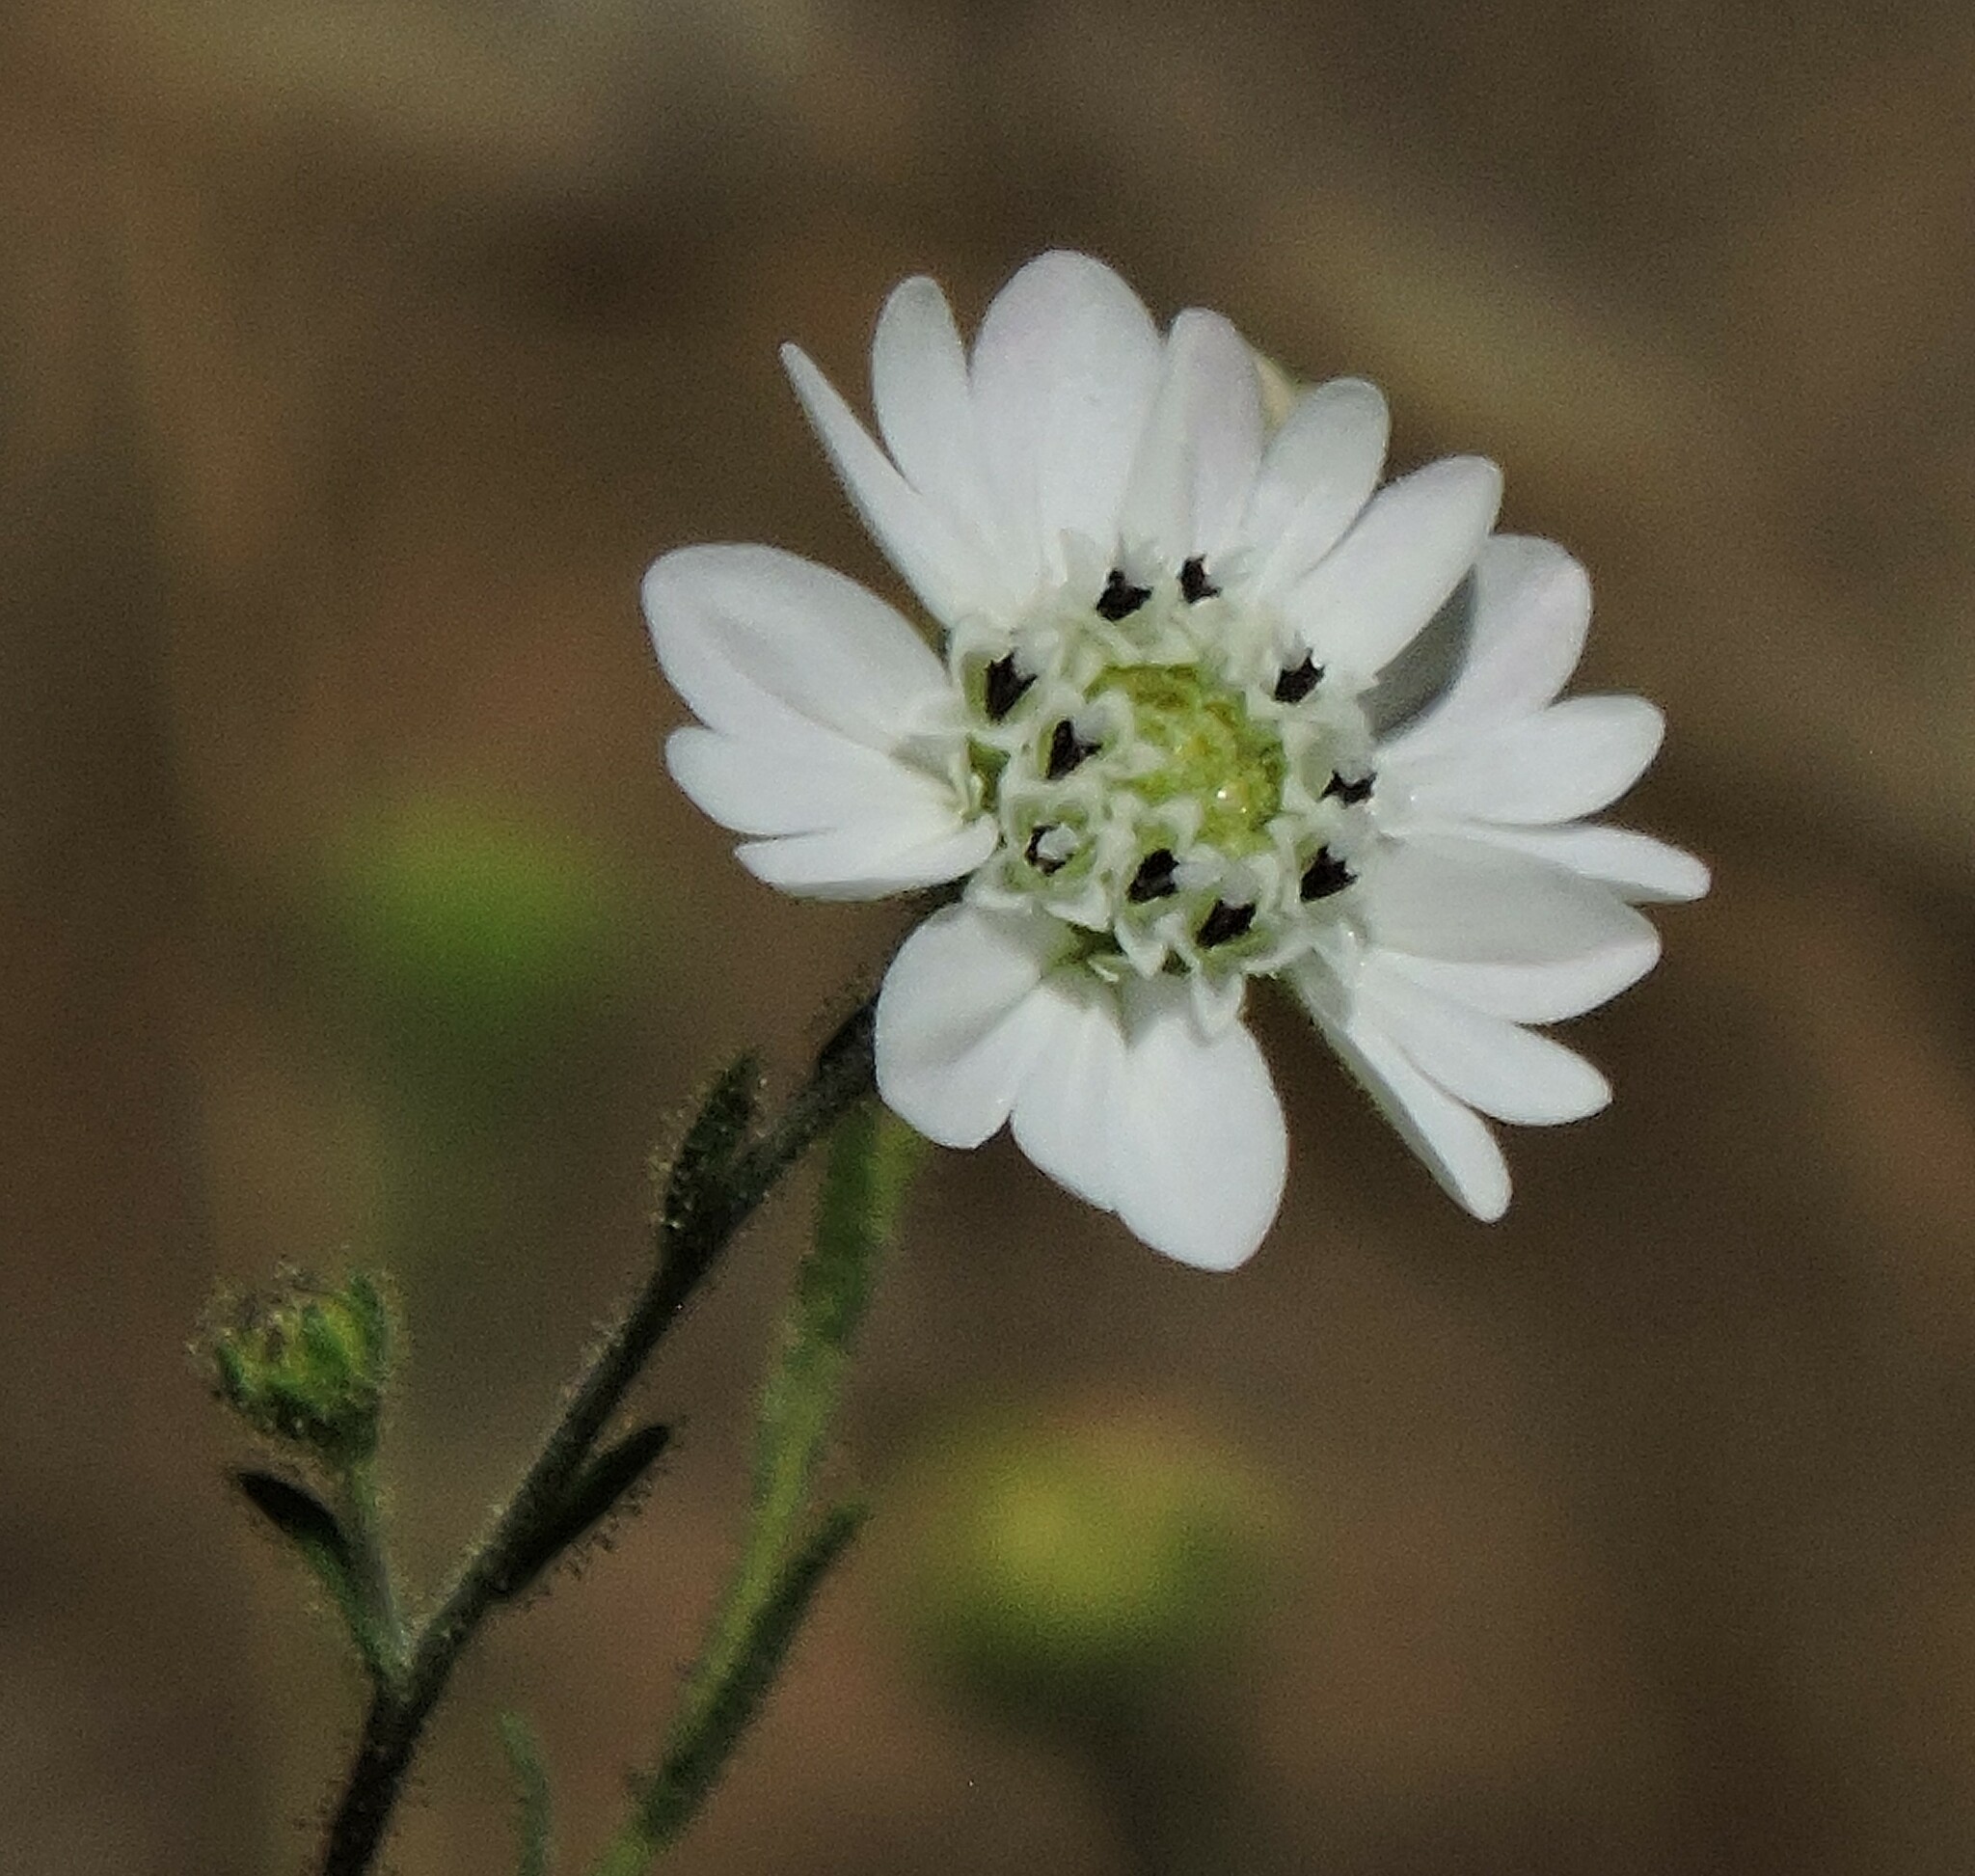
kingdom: Plantae
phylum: Tracheophyta
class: Magnoliopsida
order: Asterales
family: Asteraceae
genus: Hemizonia
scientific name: Hemizonia congesta
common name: Hayfield tarweed
